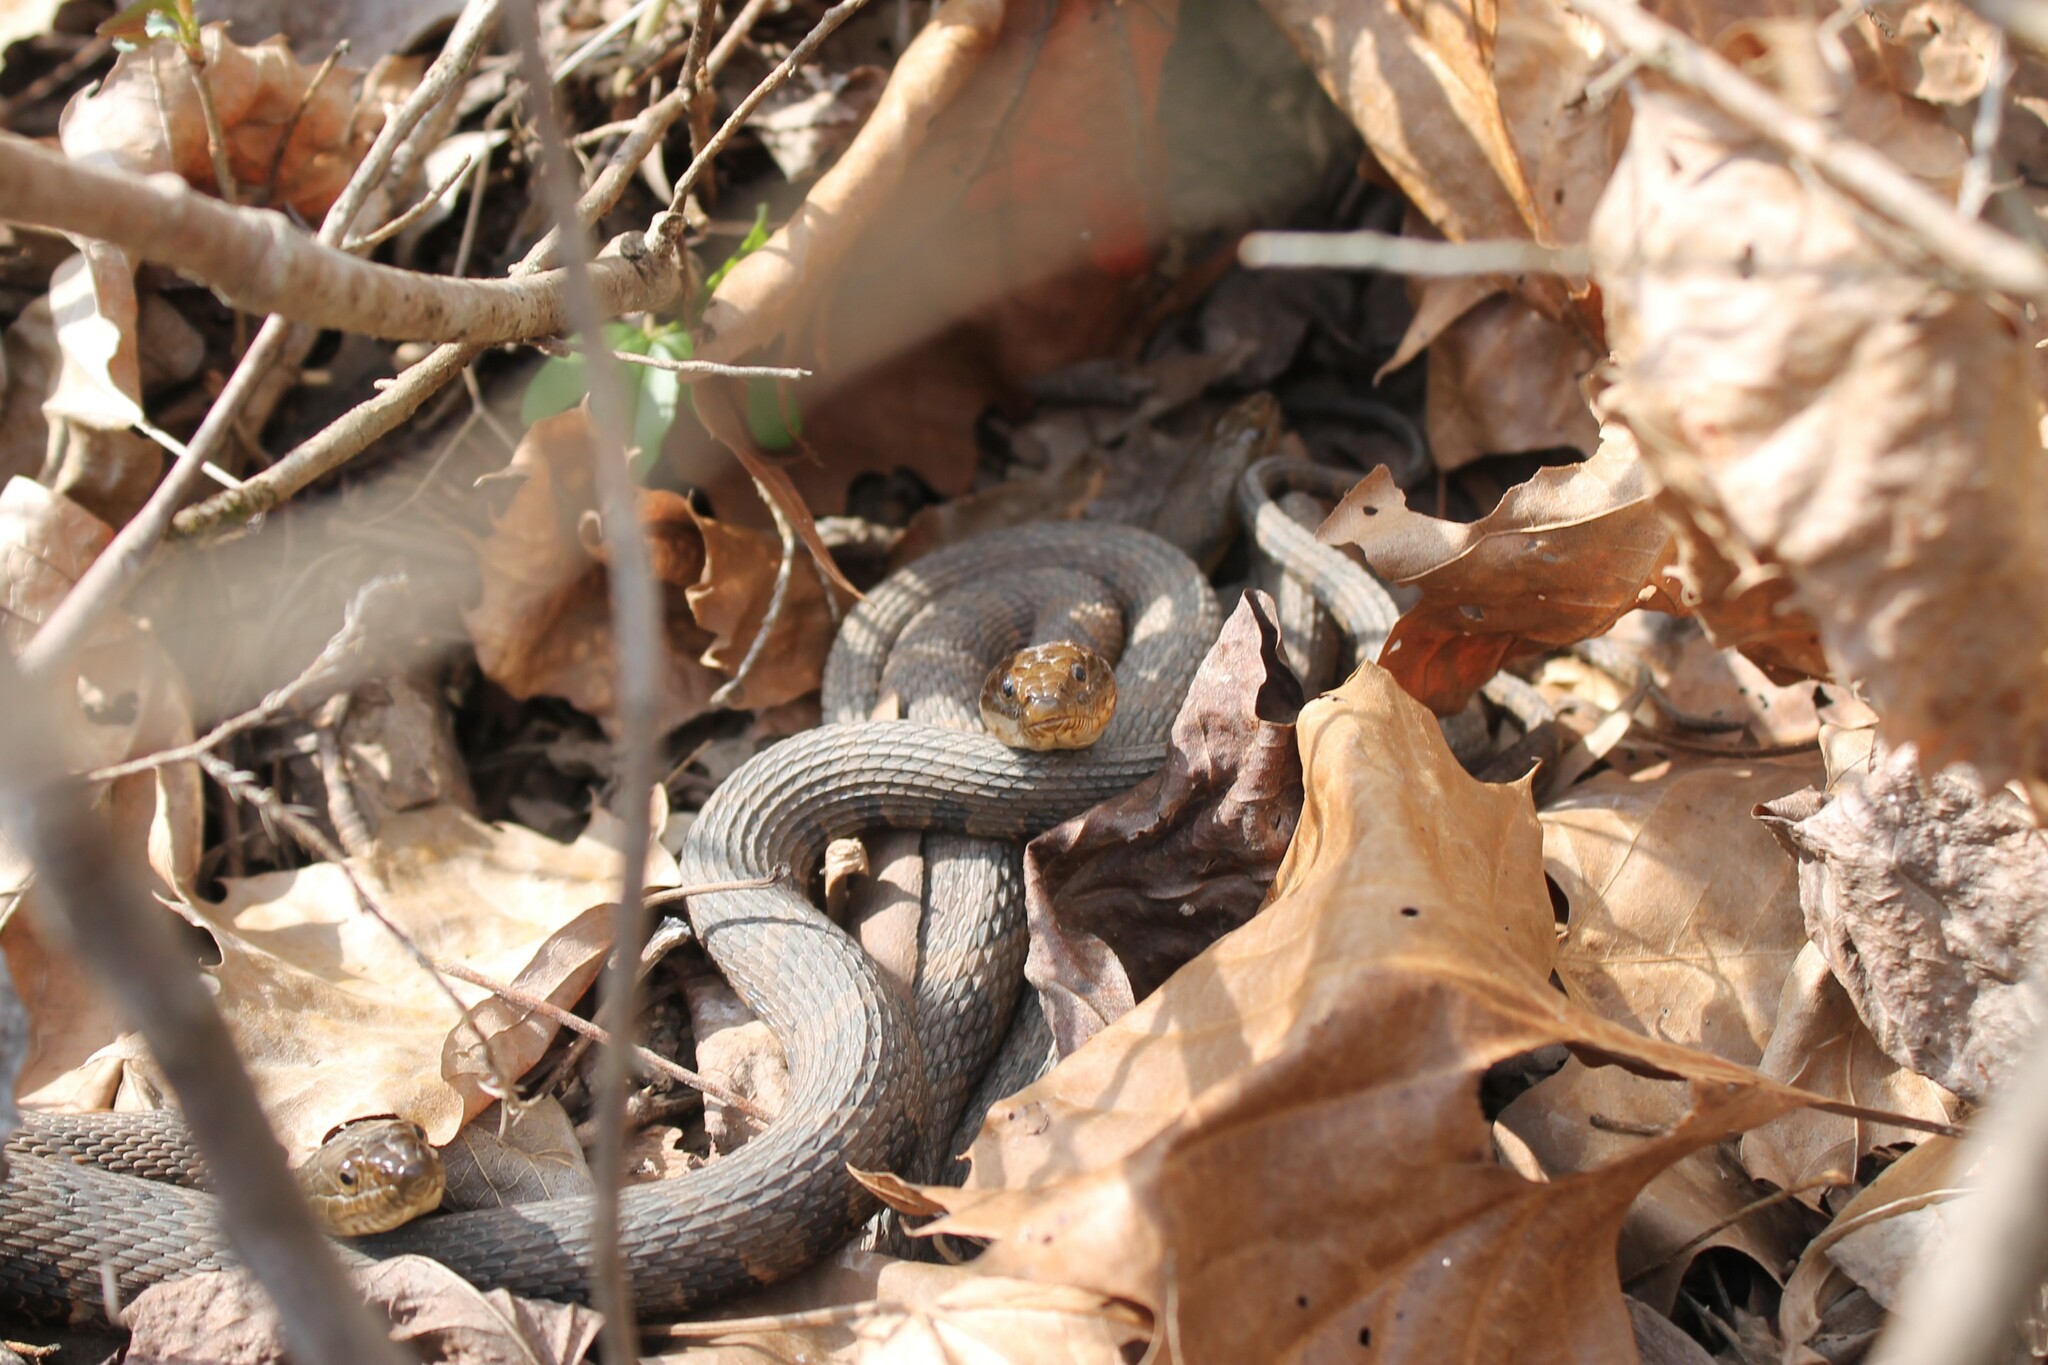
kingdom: Animalia
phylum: Chordata
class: Squamata
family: Colubridae
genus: Nerodia
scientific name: Nerodia sipedon
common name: Northern water snake
